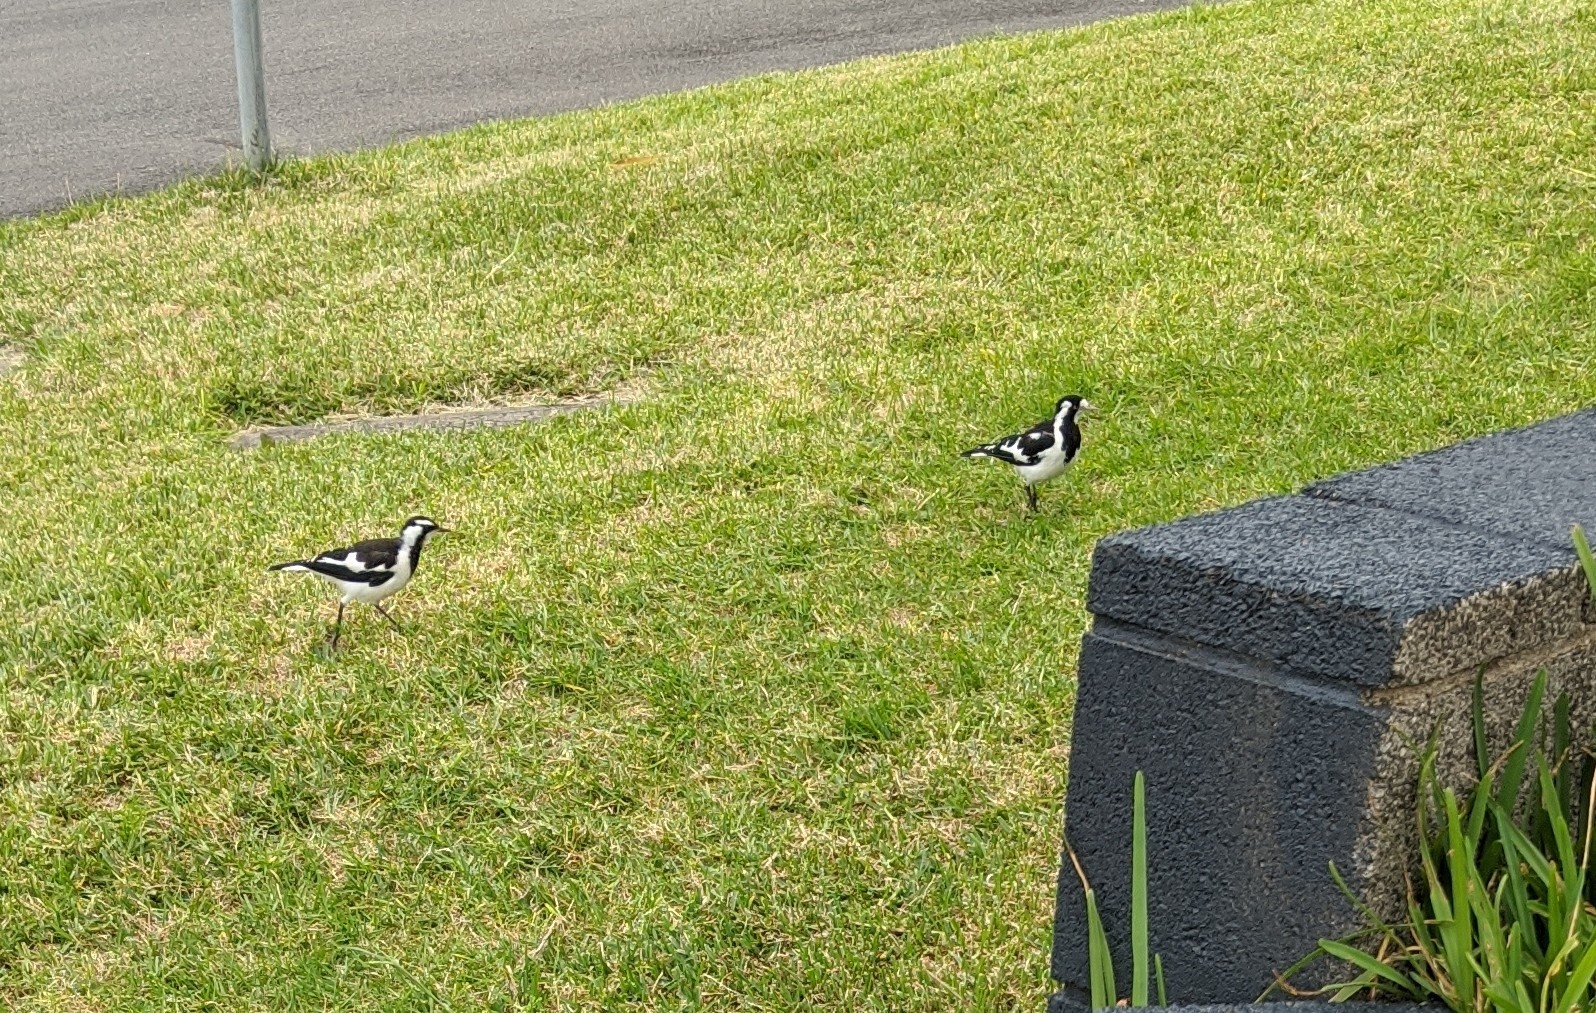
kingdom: Animalia
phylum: Chordata
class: Aves
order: Passeriformes
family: Monarchidae
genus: Grallina
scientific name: Grallina cyanoleuca
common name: Magpie-lark
